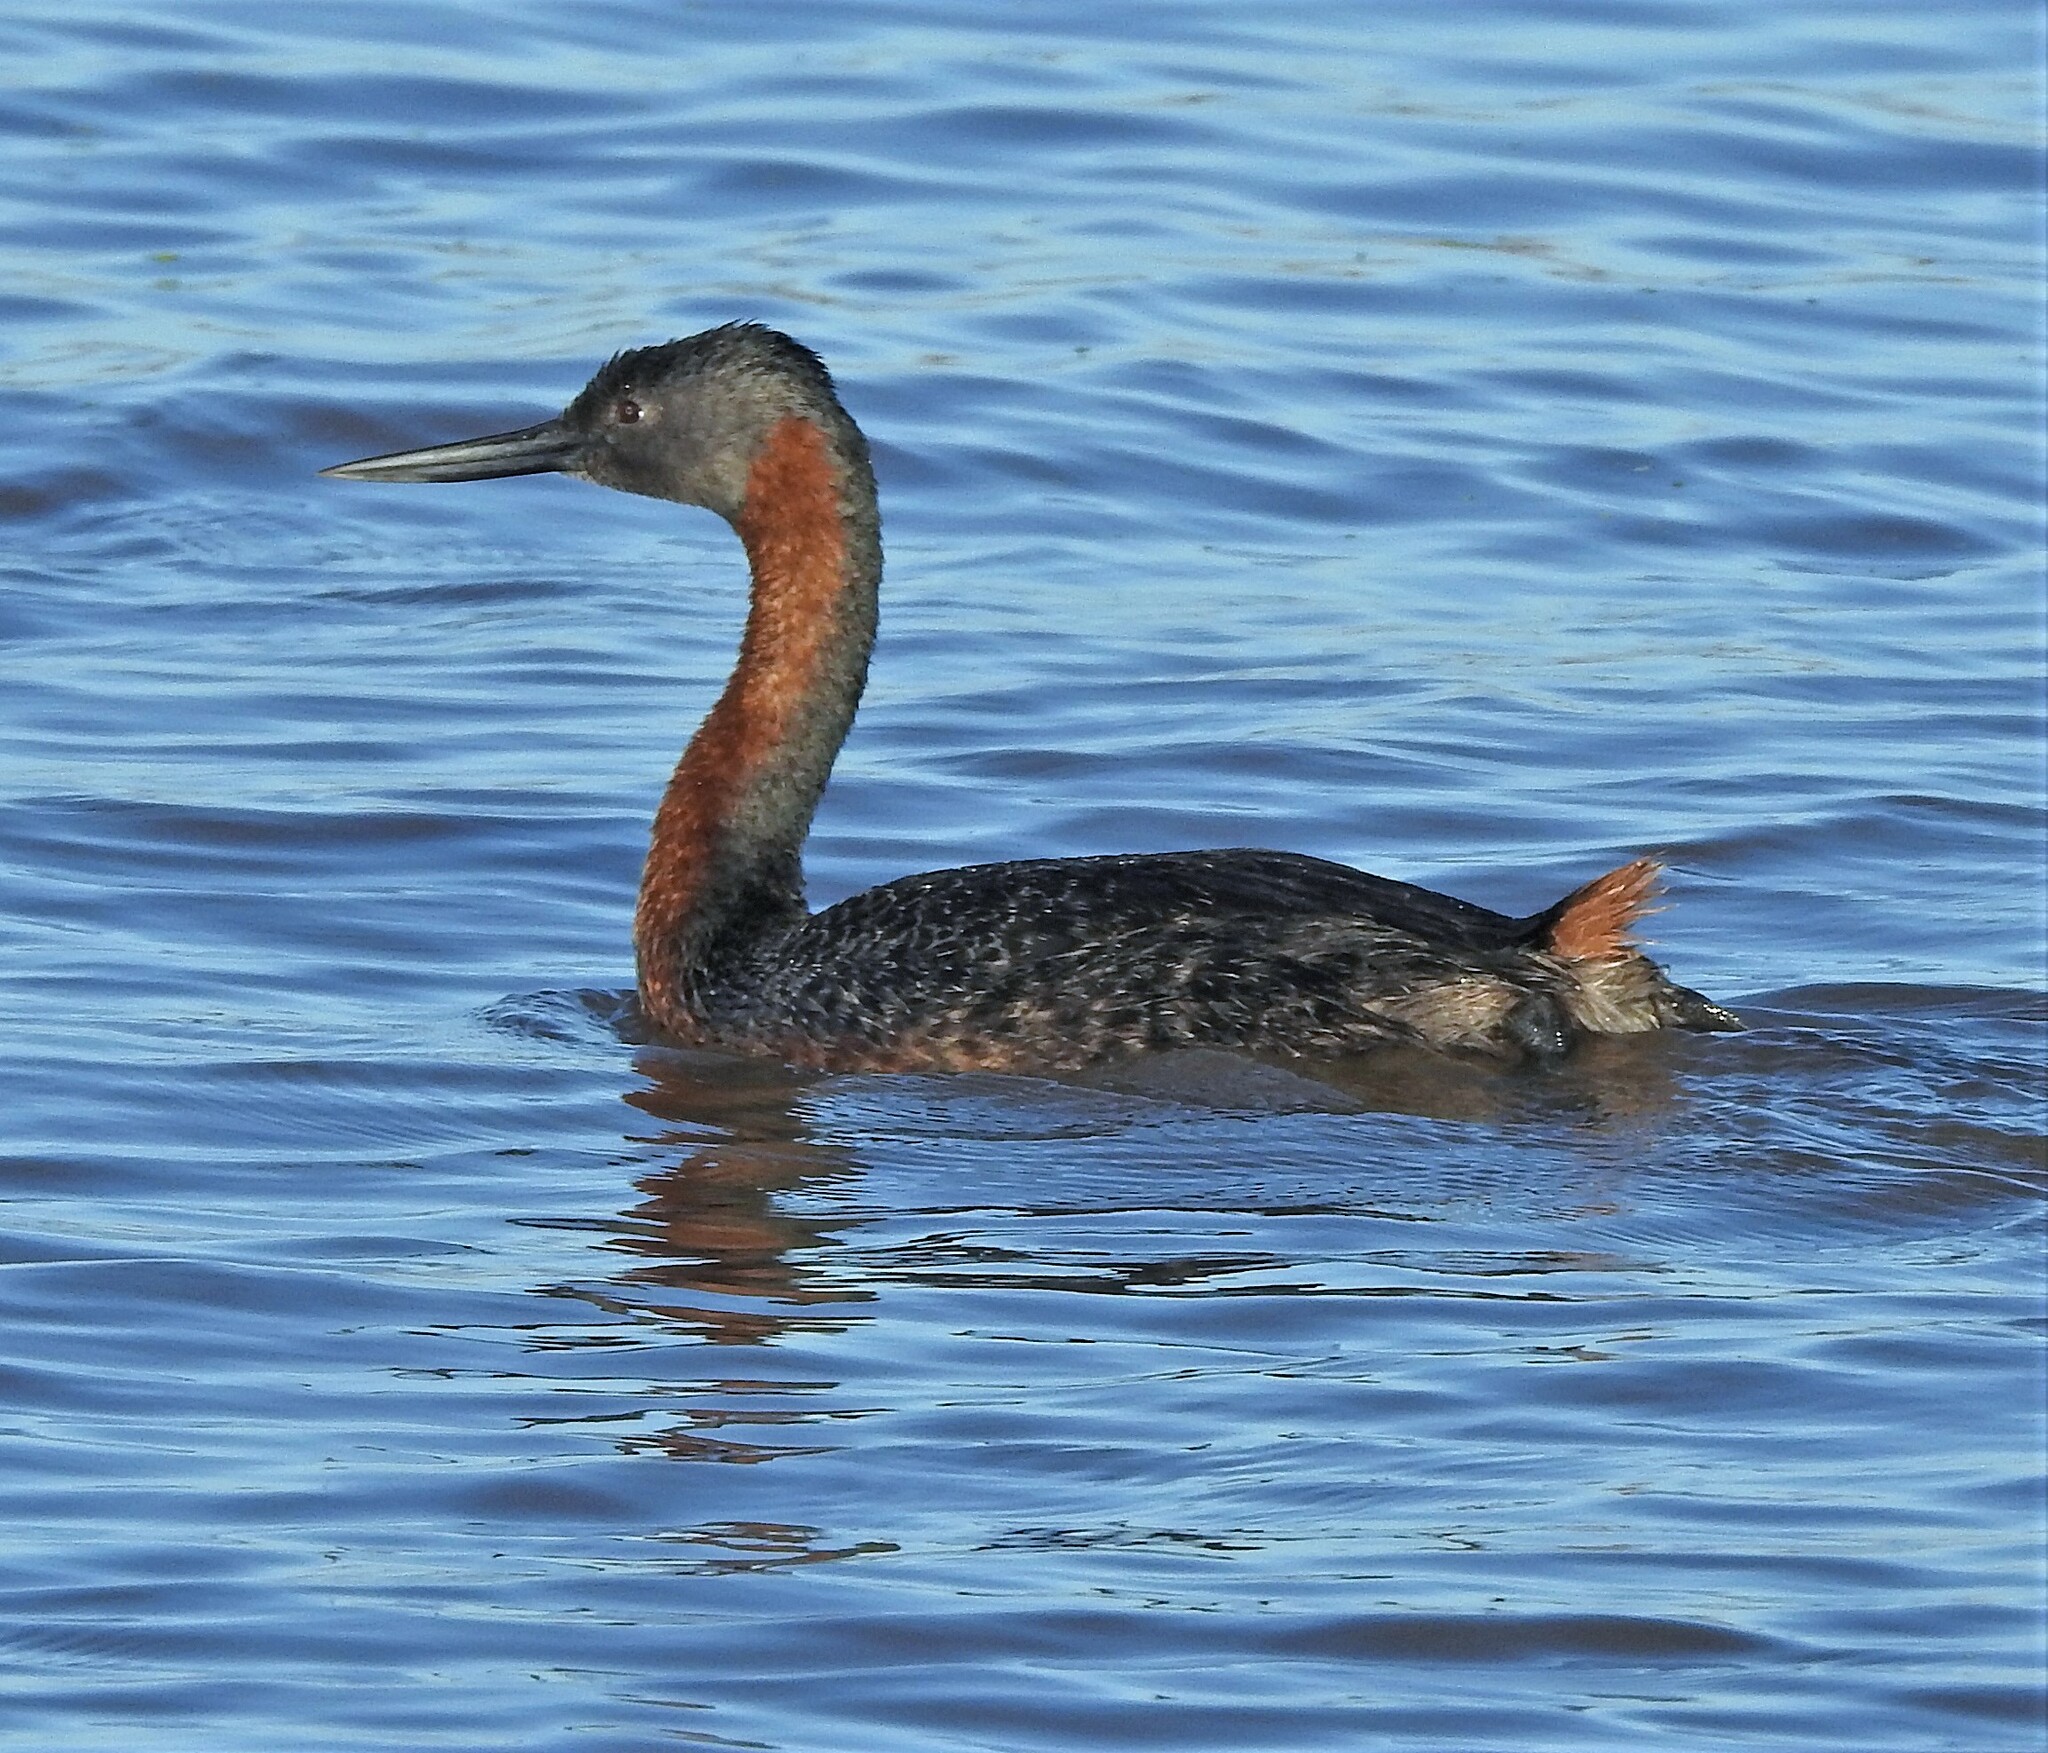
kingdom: Animalia
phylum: Chordata
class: Aves
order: Podicipediformes
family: Podicipedidae
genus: Podiceps
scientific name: Podiceps major
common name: Great grebe
